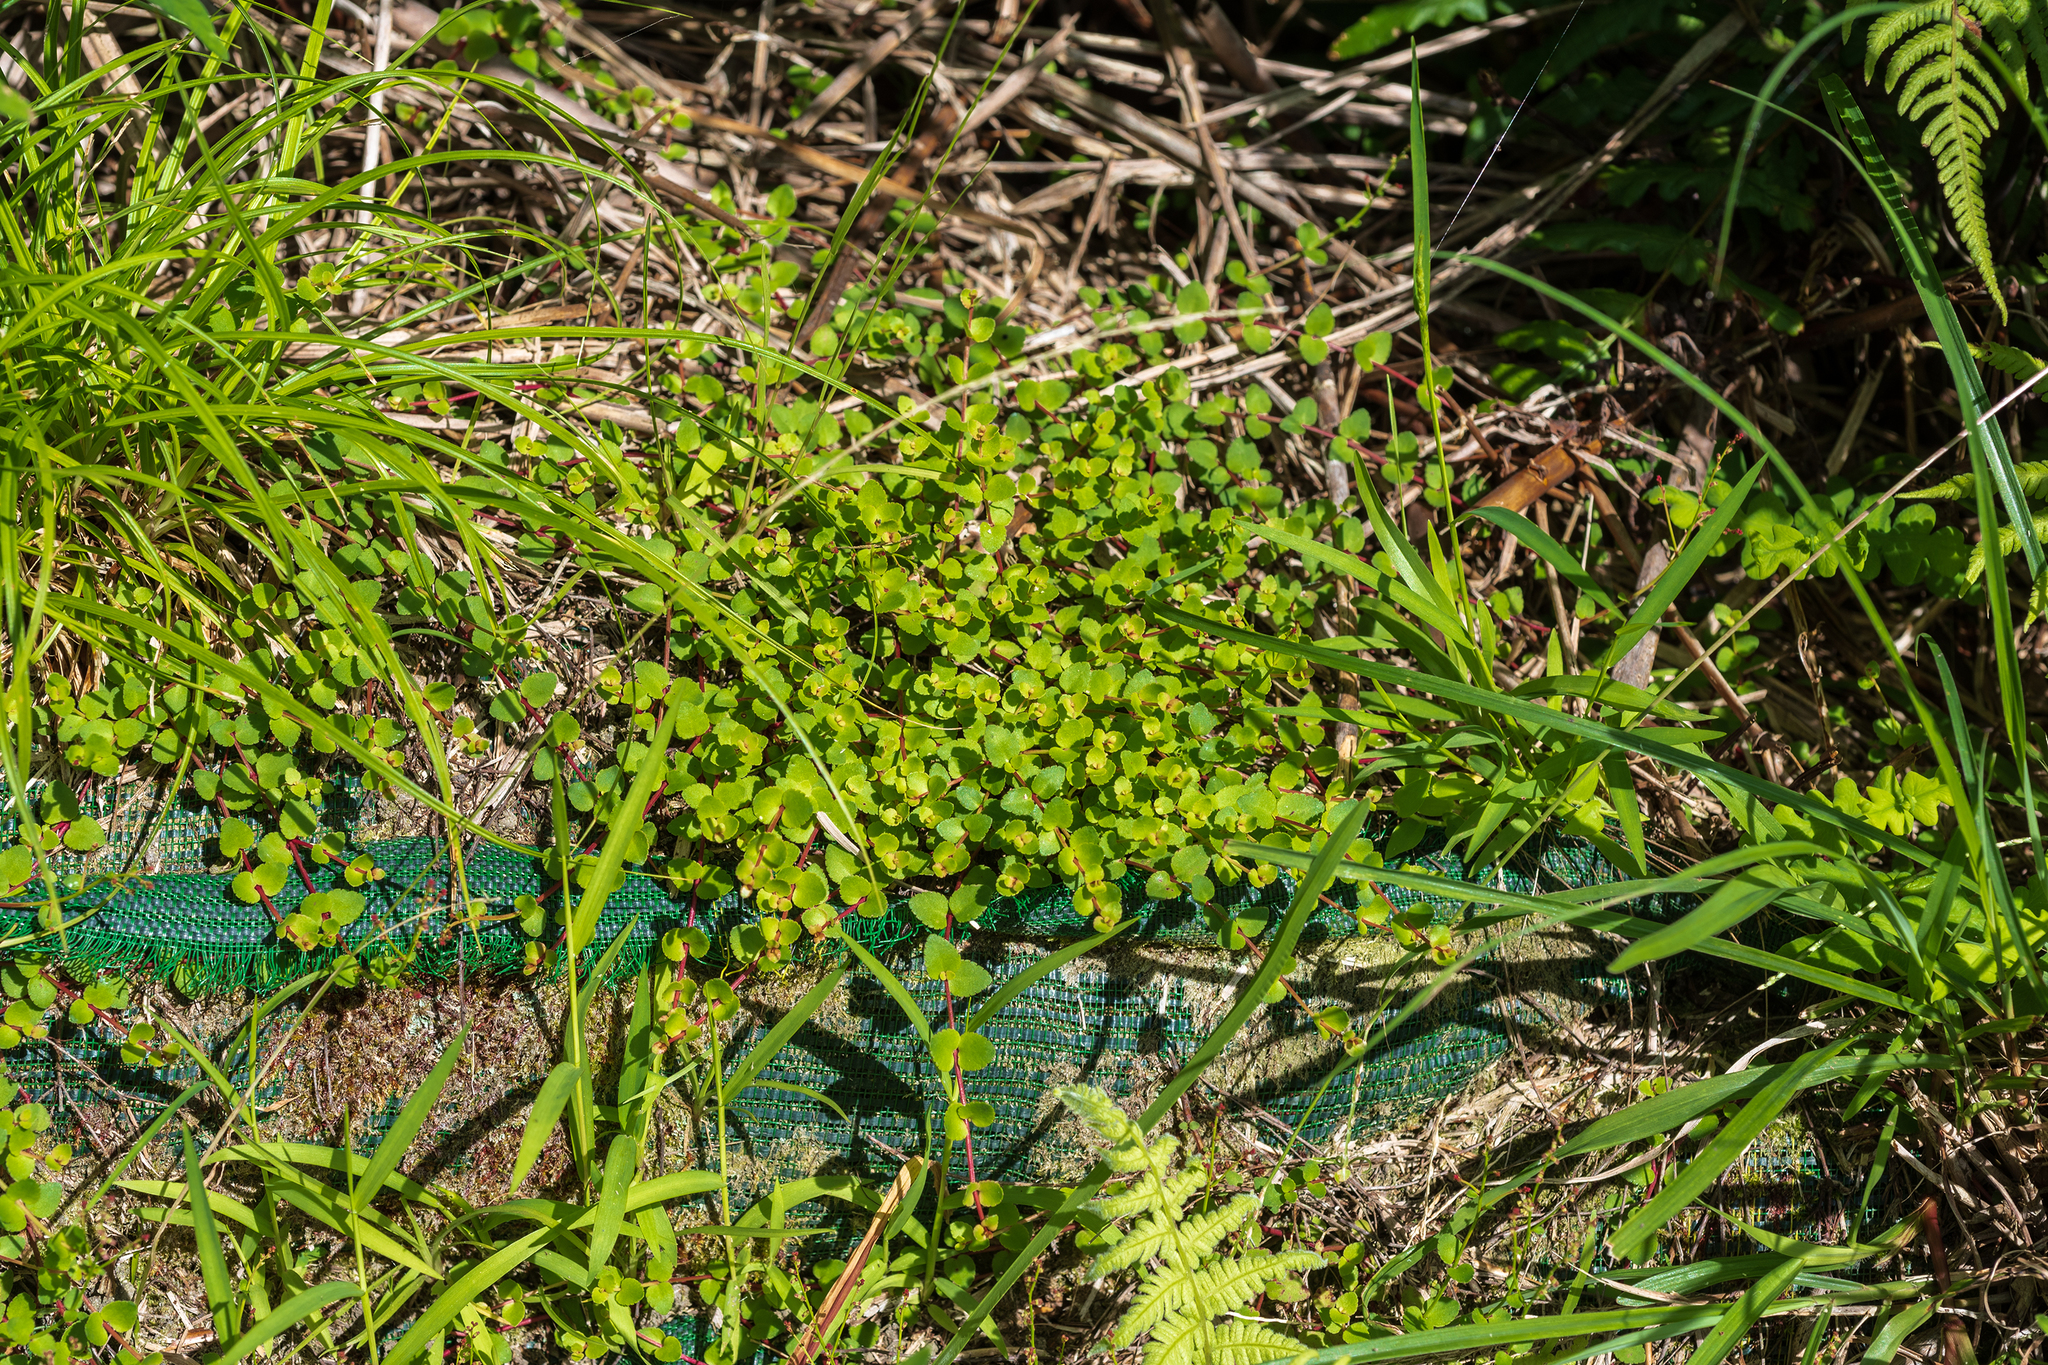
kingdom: Plantae
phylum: Tracheophyta
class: Magnoliopsida
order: Saxifragales
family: Haloragaceae
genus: Gonocarpus
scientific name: Gonocarpus micranthus
